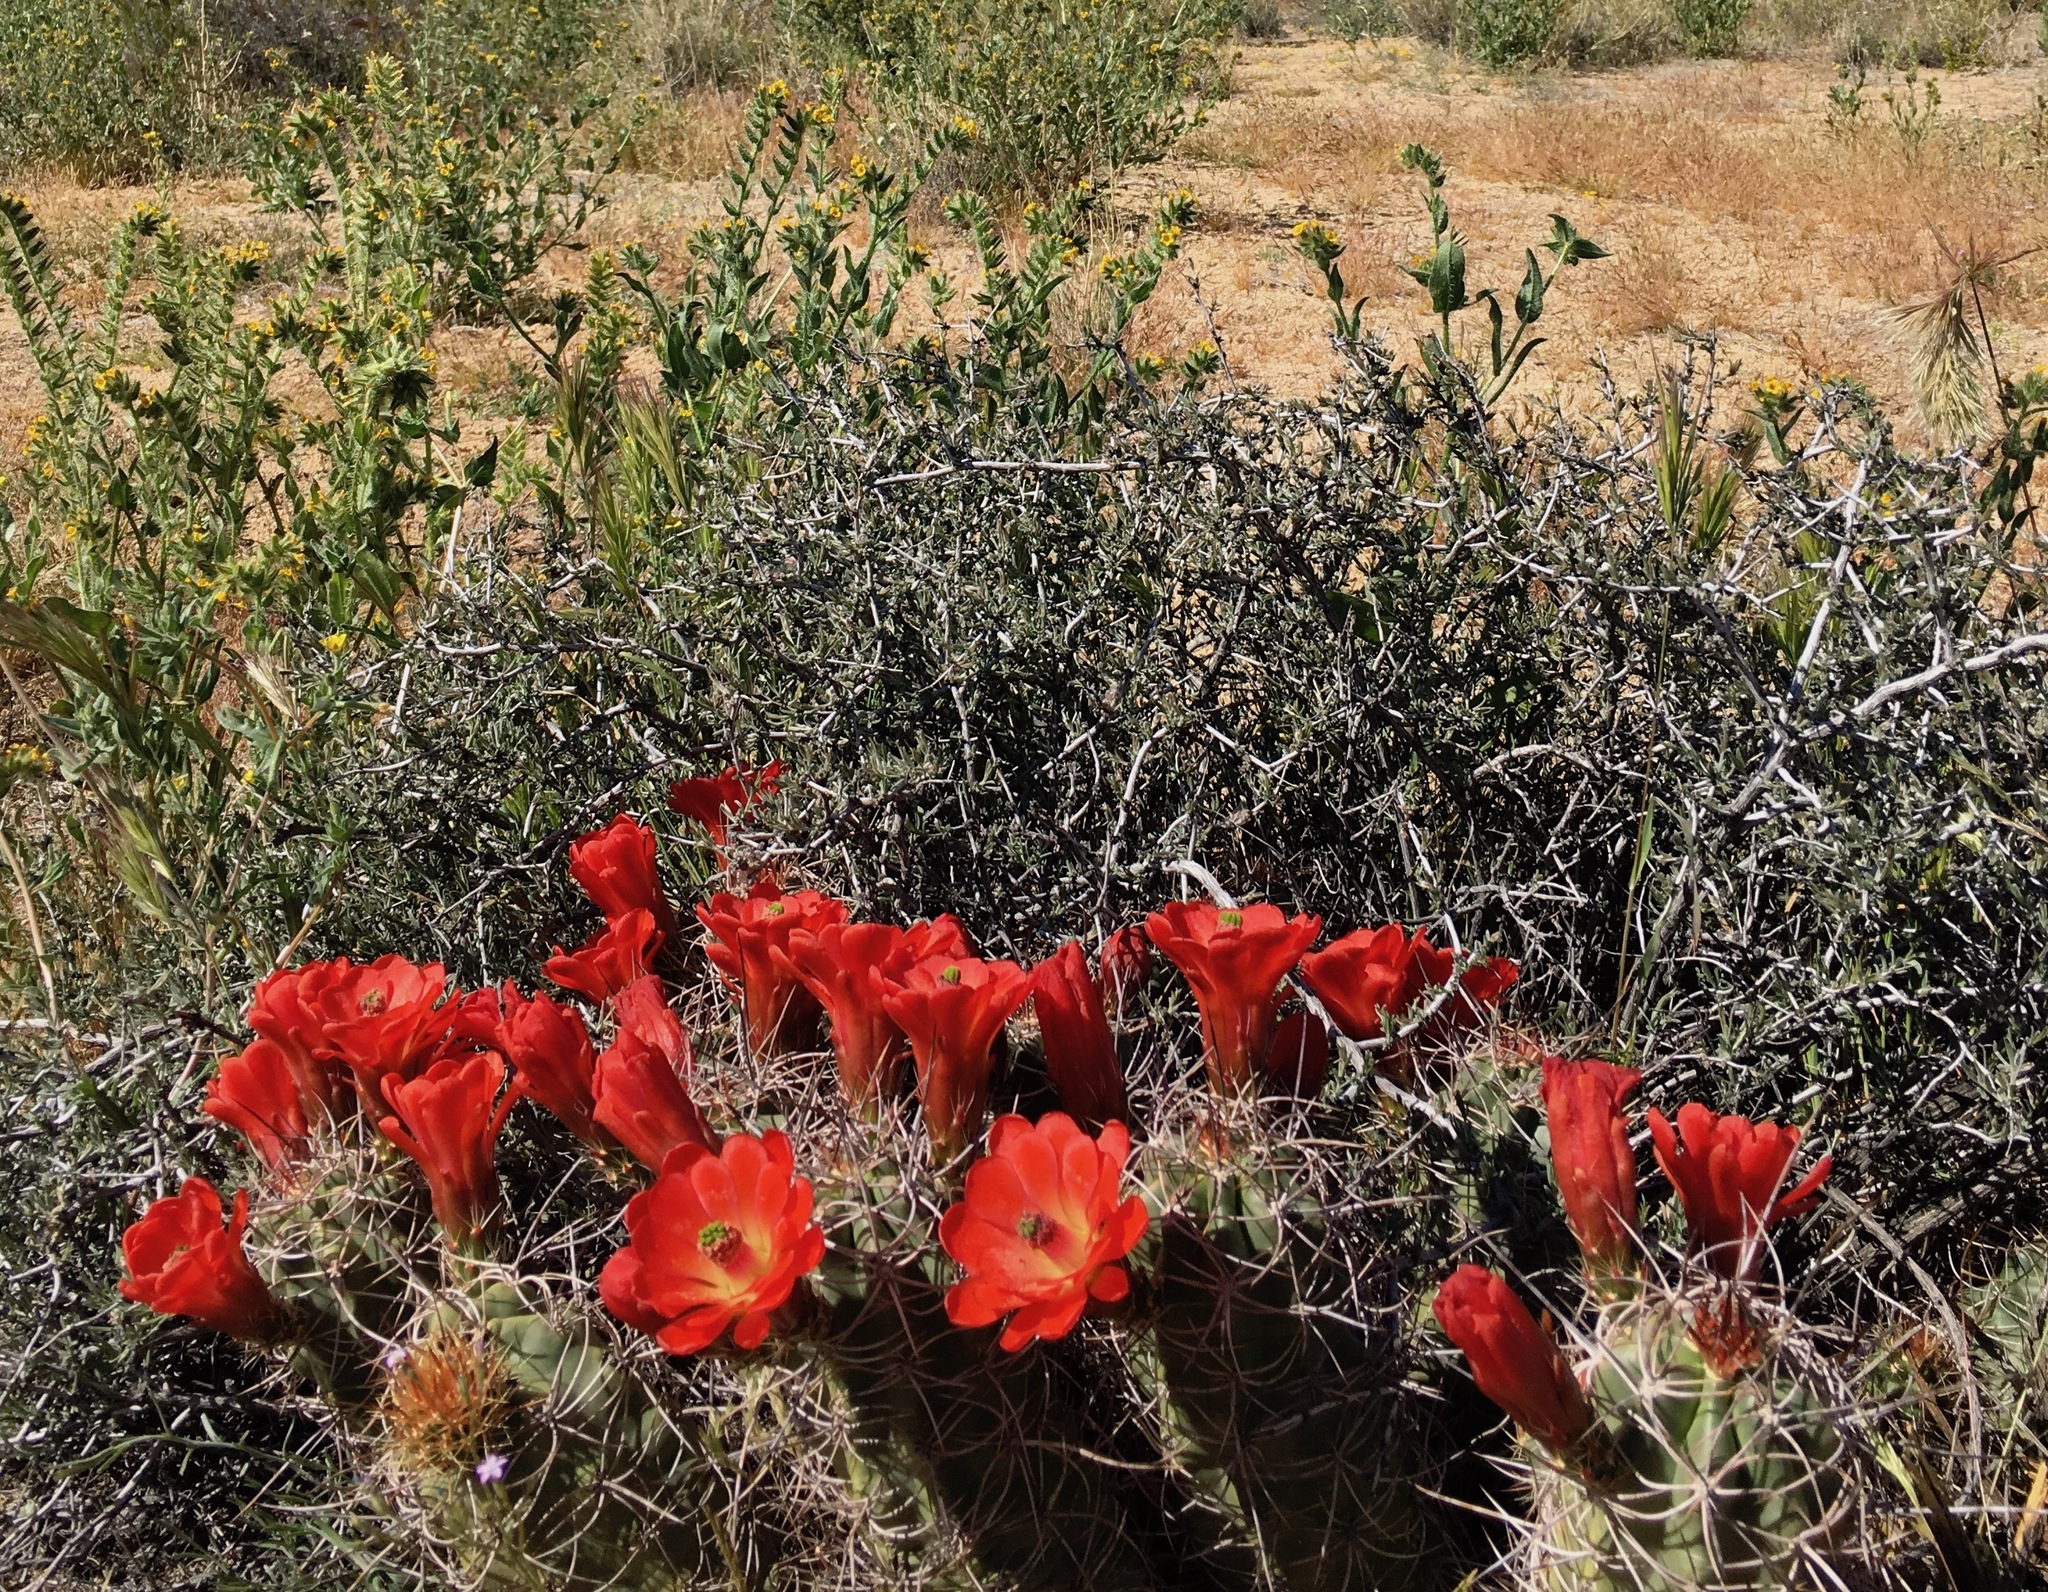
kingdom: Plantae
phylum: Tracheophyta
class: Magnoliopsida
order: Caryophyllales
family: Cactaceae
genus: Echinocereus
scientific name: Echinocereus triglochidiatus
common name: Claretcup hedgehog
